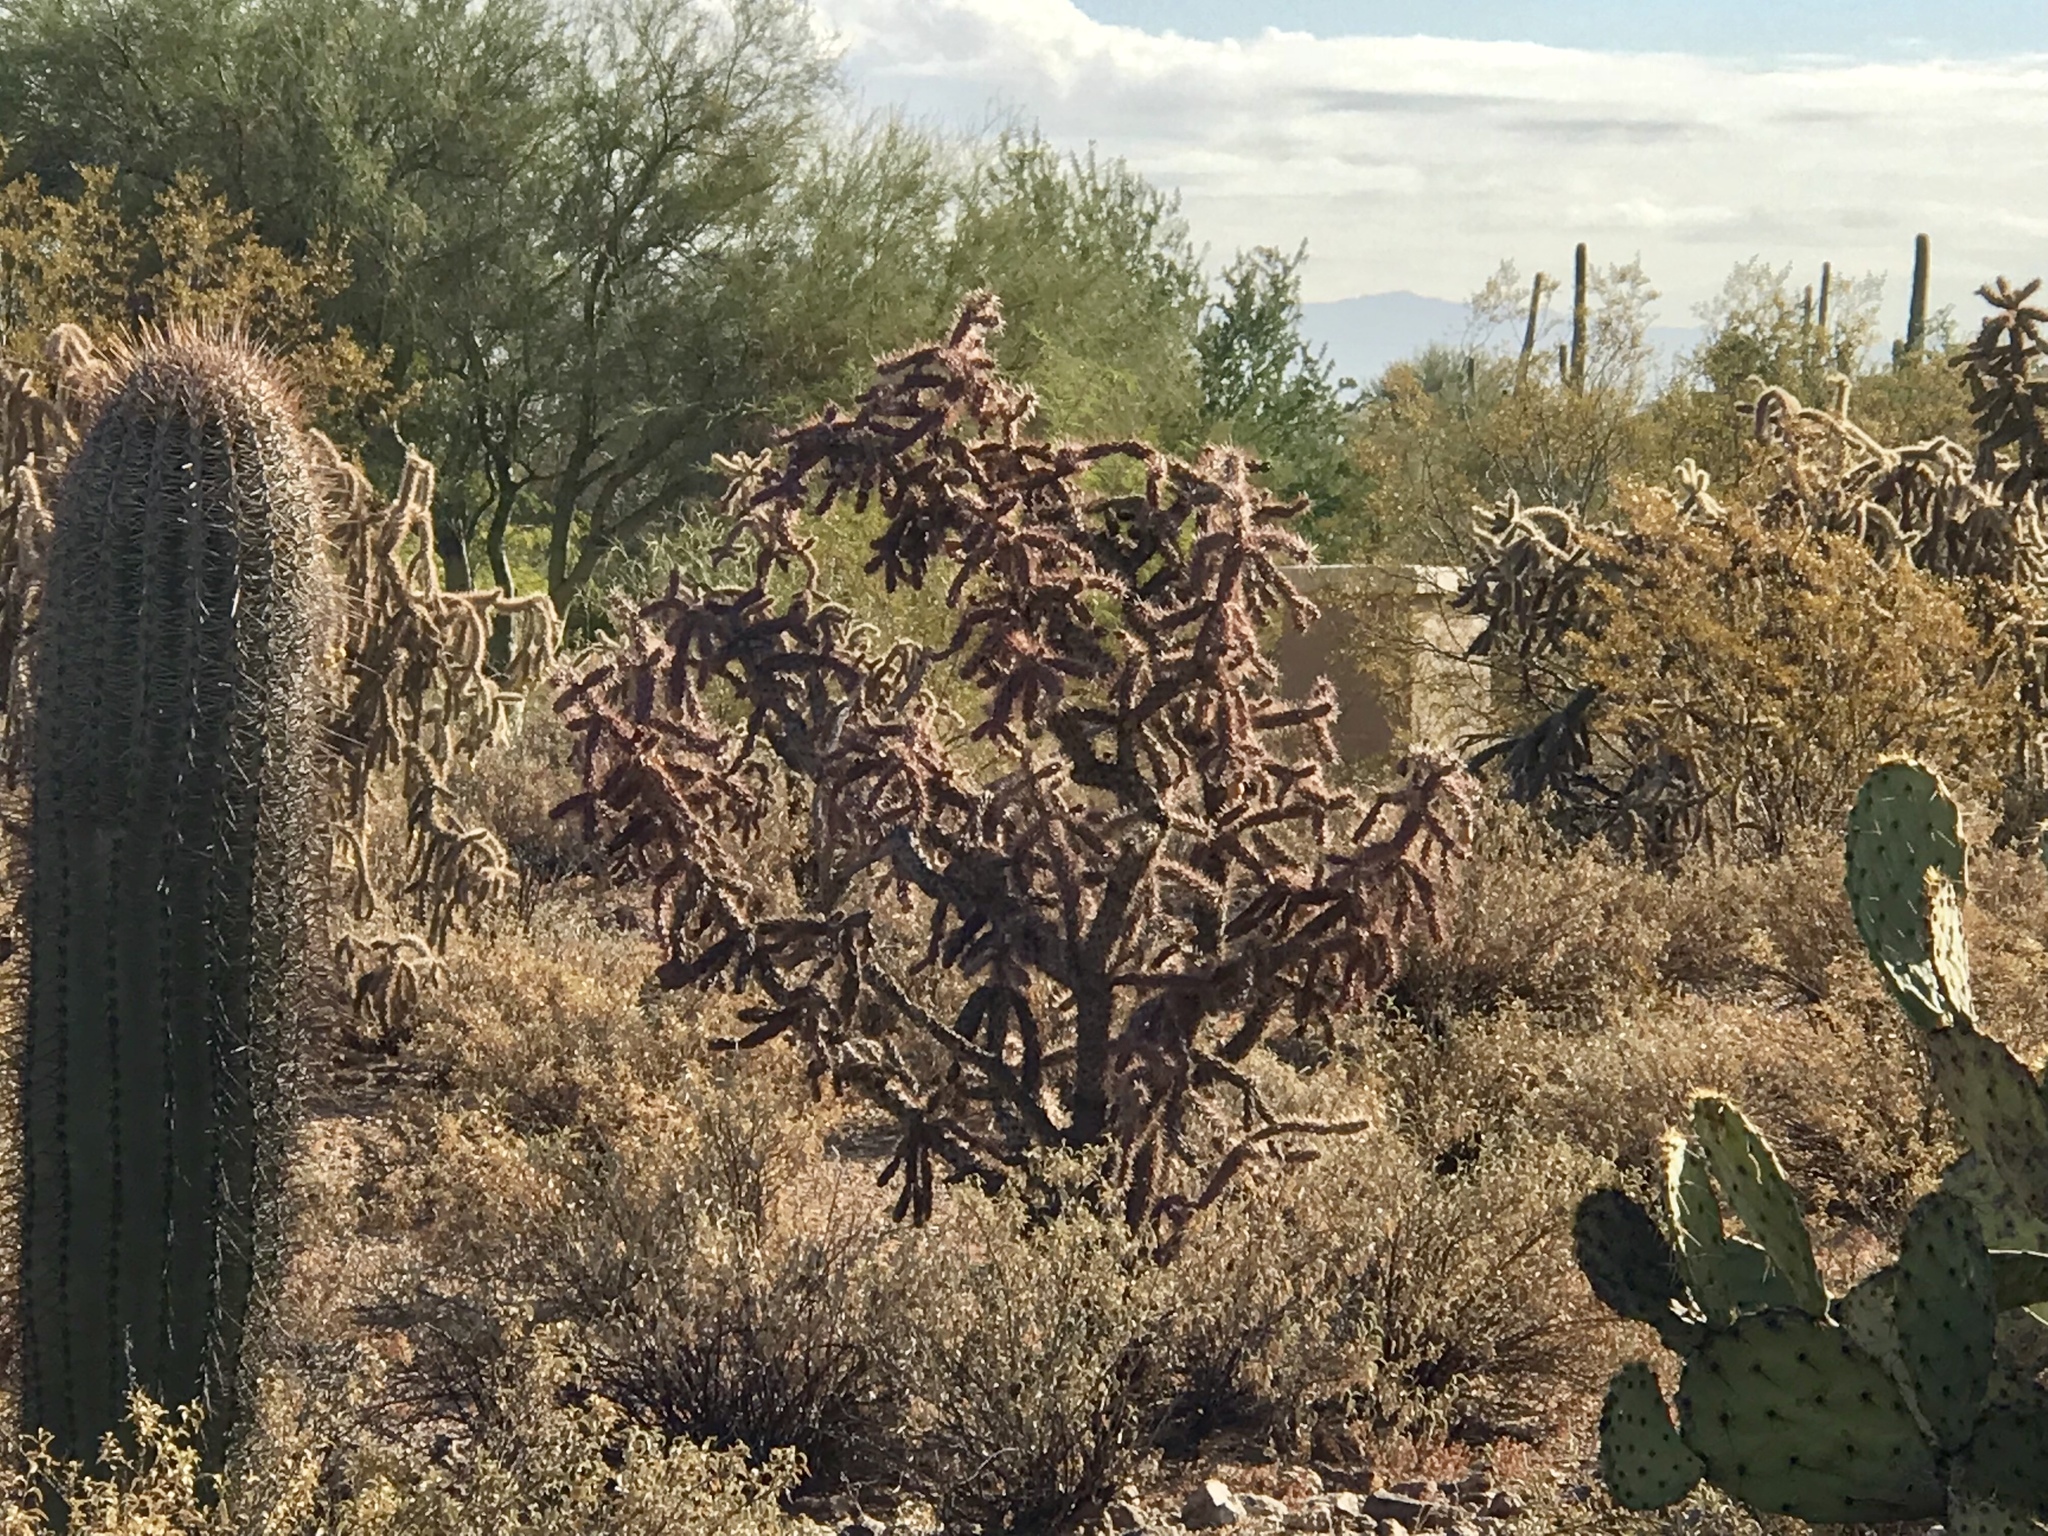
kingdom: Plantae
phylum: Tracheophyta
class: Magnoliopsida
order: Caryophyllales
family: Cactaceae
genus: Cylindropuntia
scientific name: Cylindropuntia thurberi
